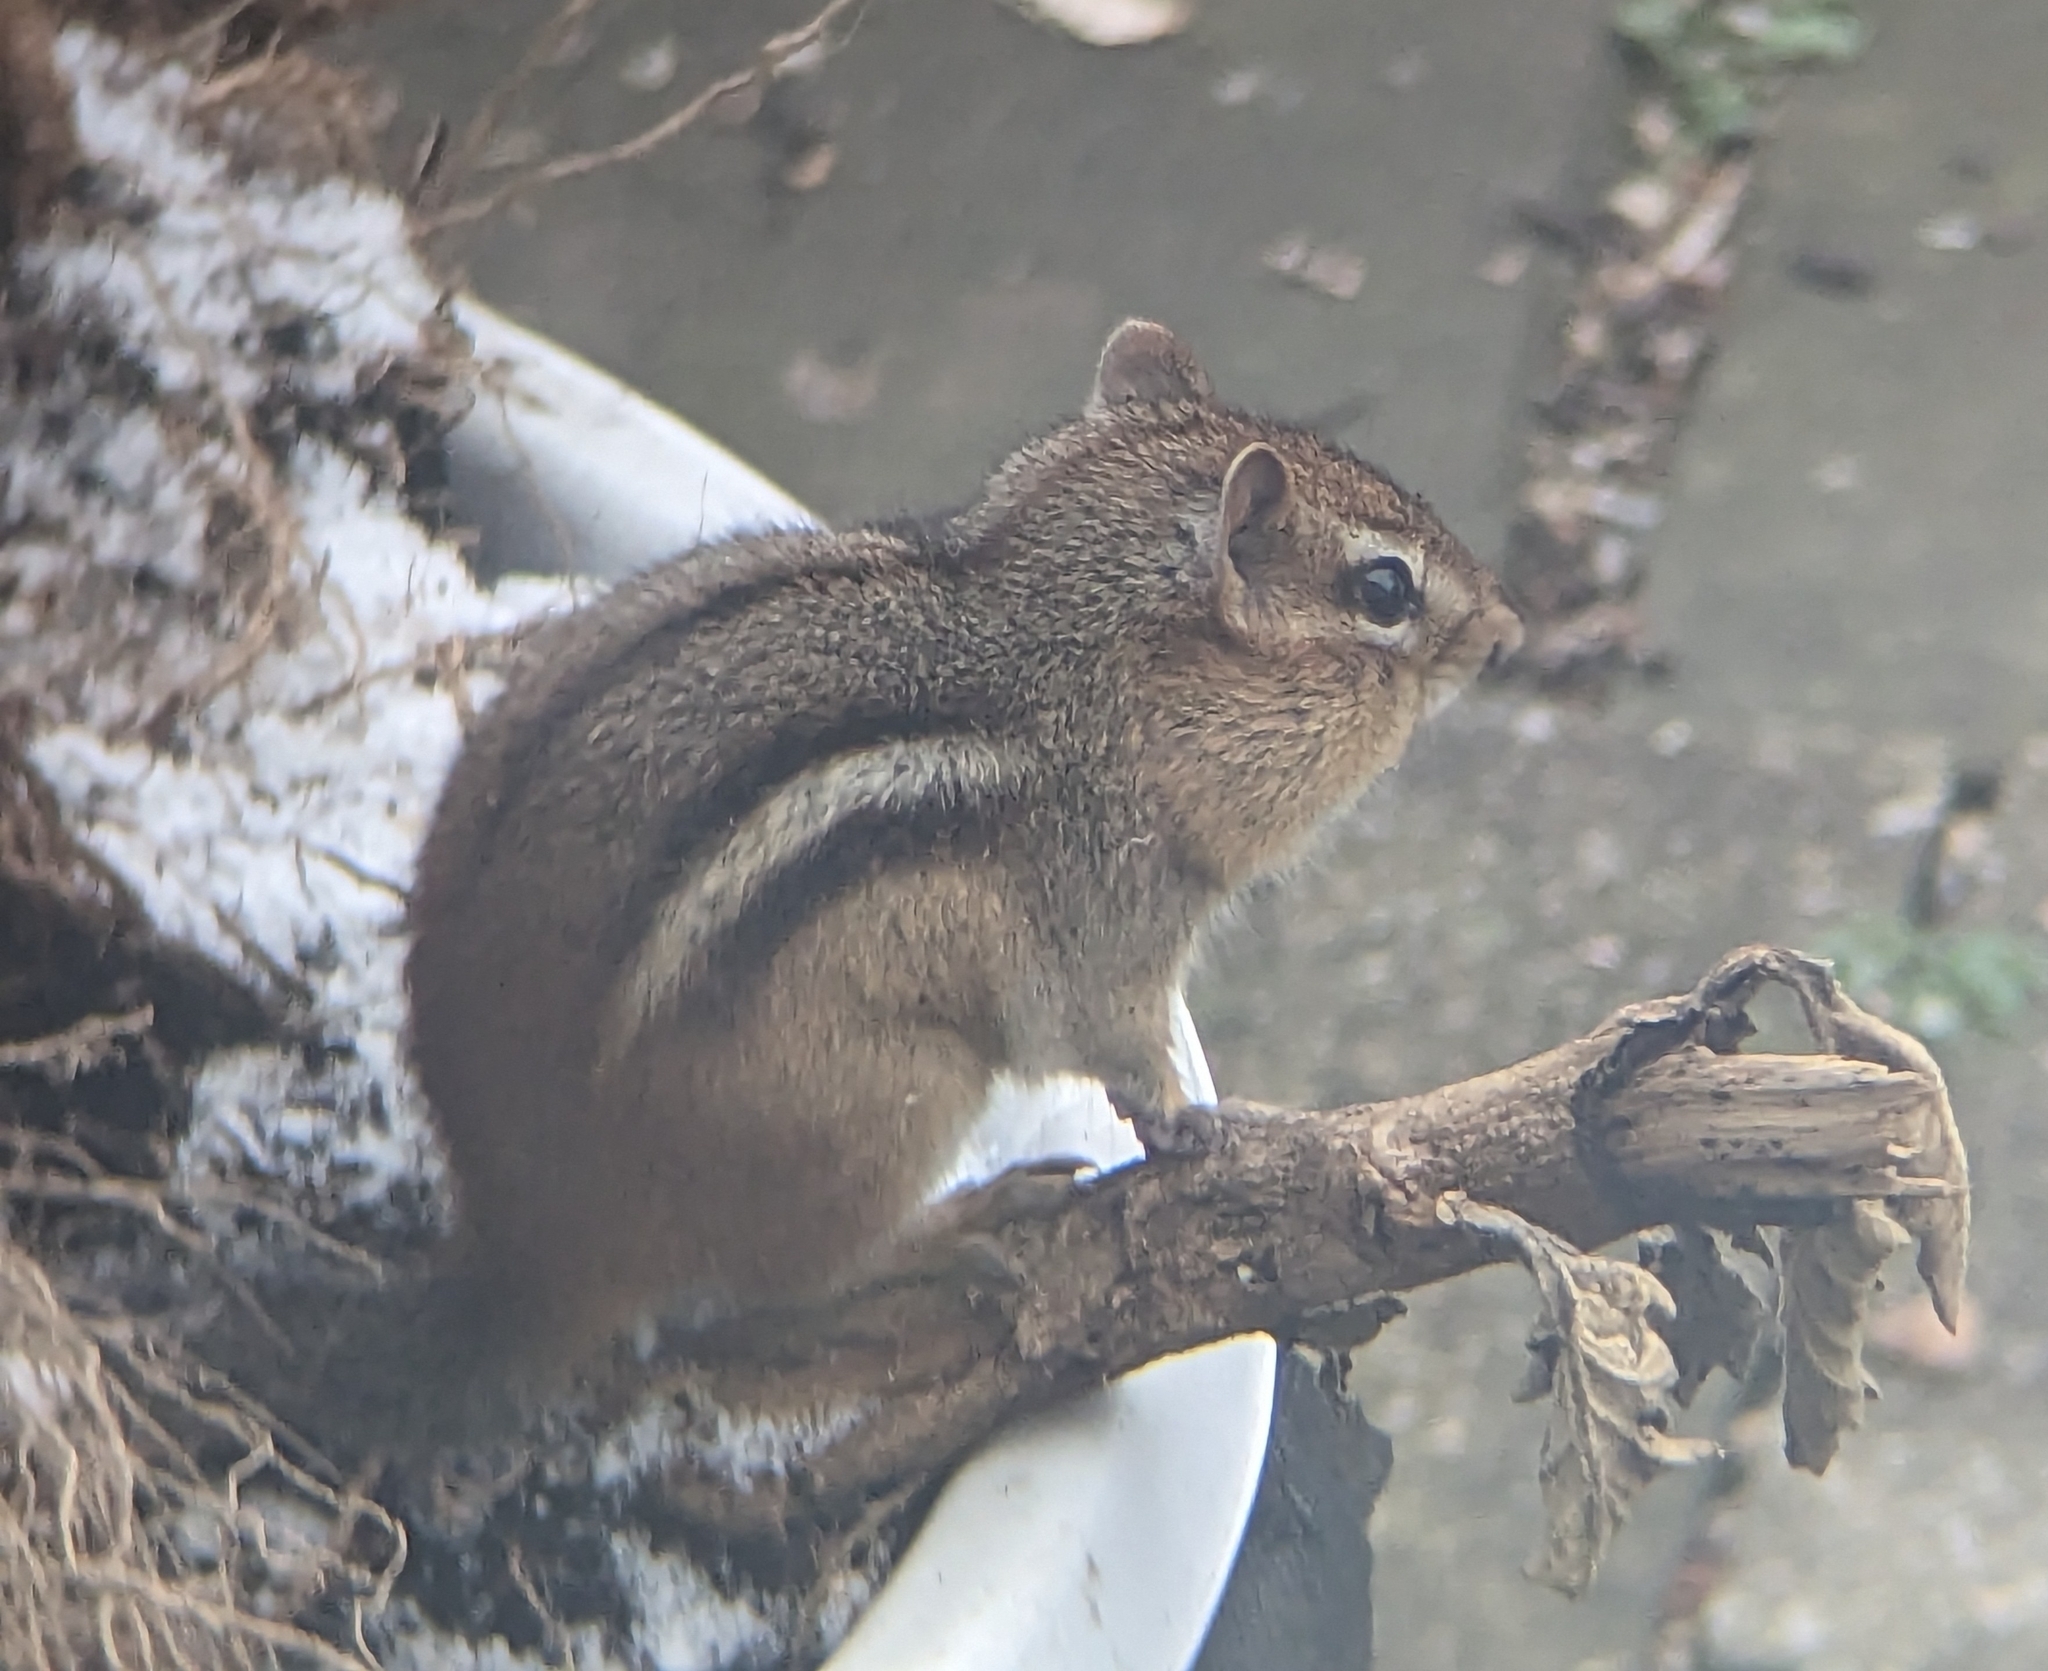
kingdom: Animalia
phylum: Chordata
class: Mammalia
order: Rodentia
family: Sciuridae
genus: Tamias
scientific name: Tamias striatus
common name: Eastern chipmunk
